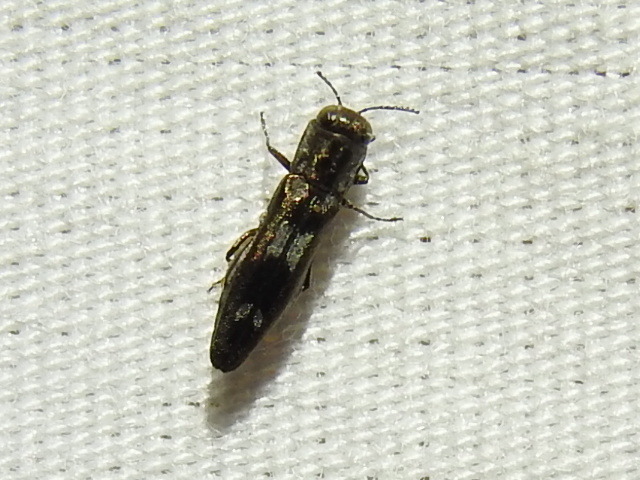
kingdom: Animalia
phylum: Arthropoda
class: Insecta
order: Coleoptera
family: Buprestidae
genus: Agrilus
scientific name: Agrilus acaciae
